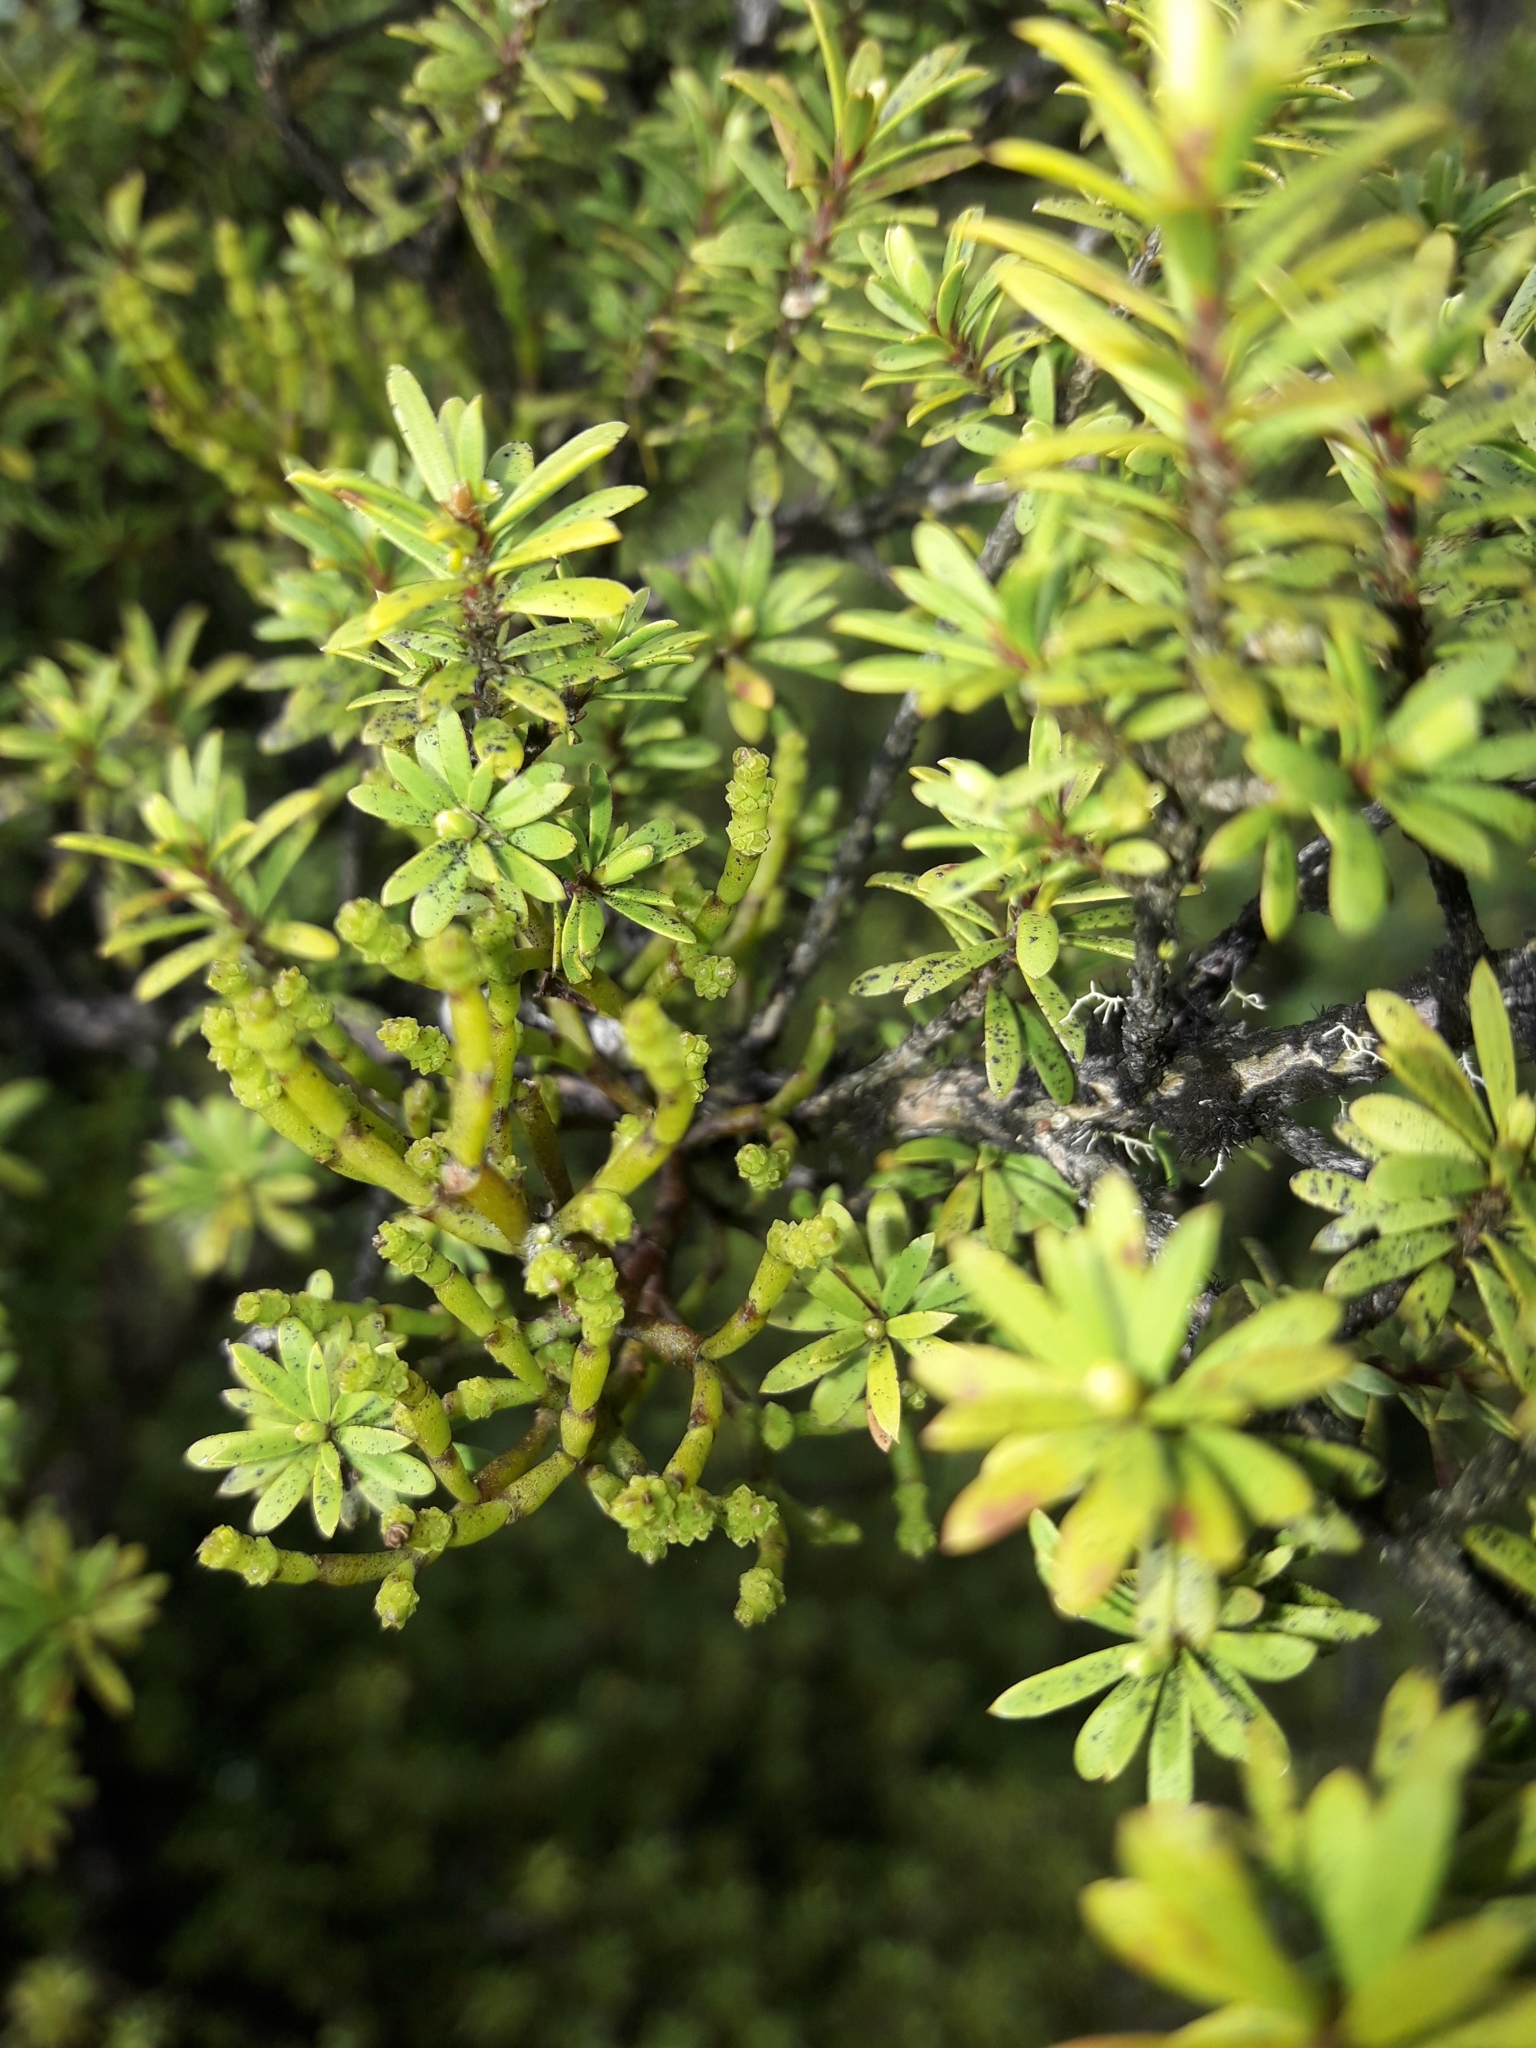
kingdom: Plantae
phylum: Tracheophyta
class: Magnoliopsida
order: Santalales
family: Viscaceae
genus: Korthalsella
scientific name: Korthalsella salicornioides
